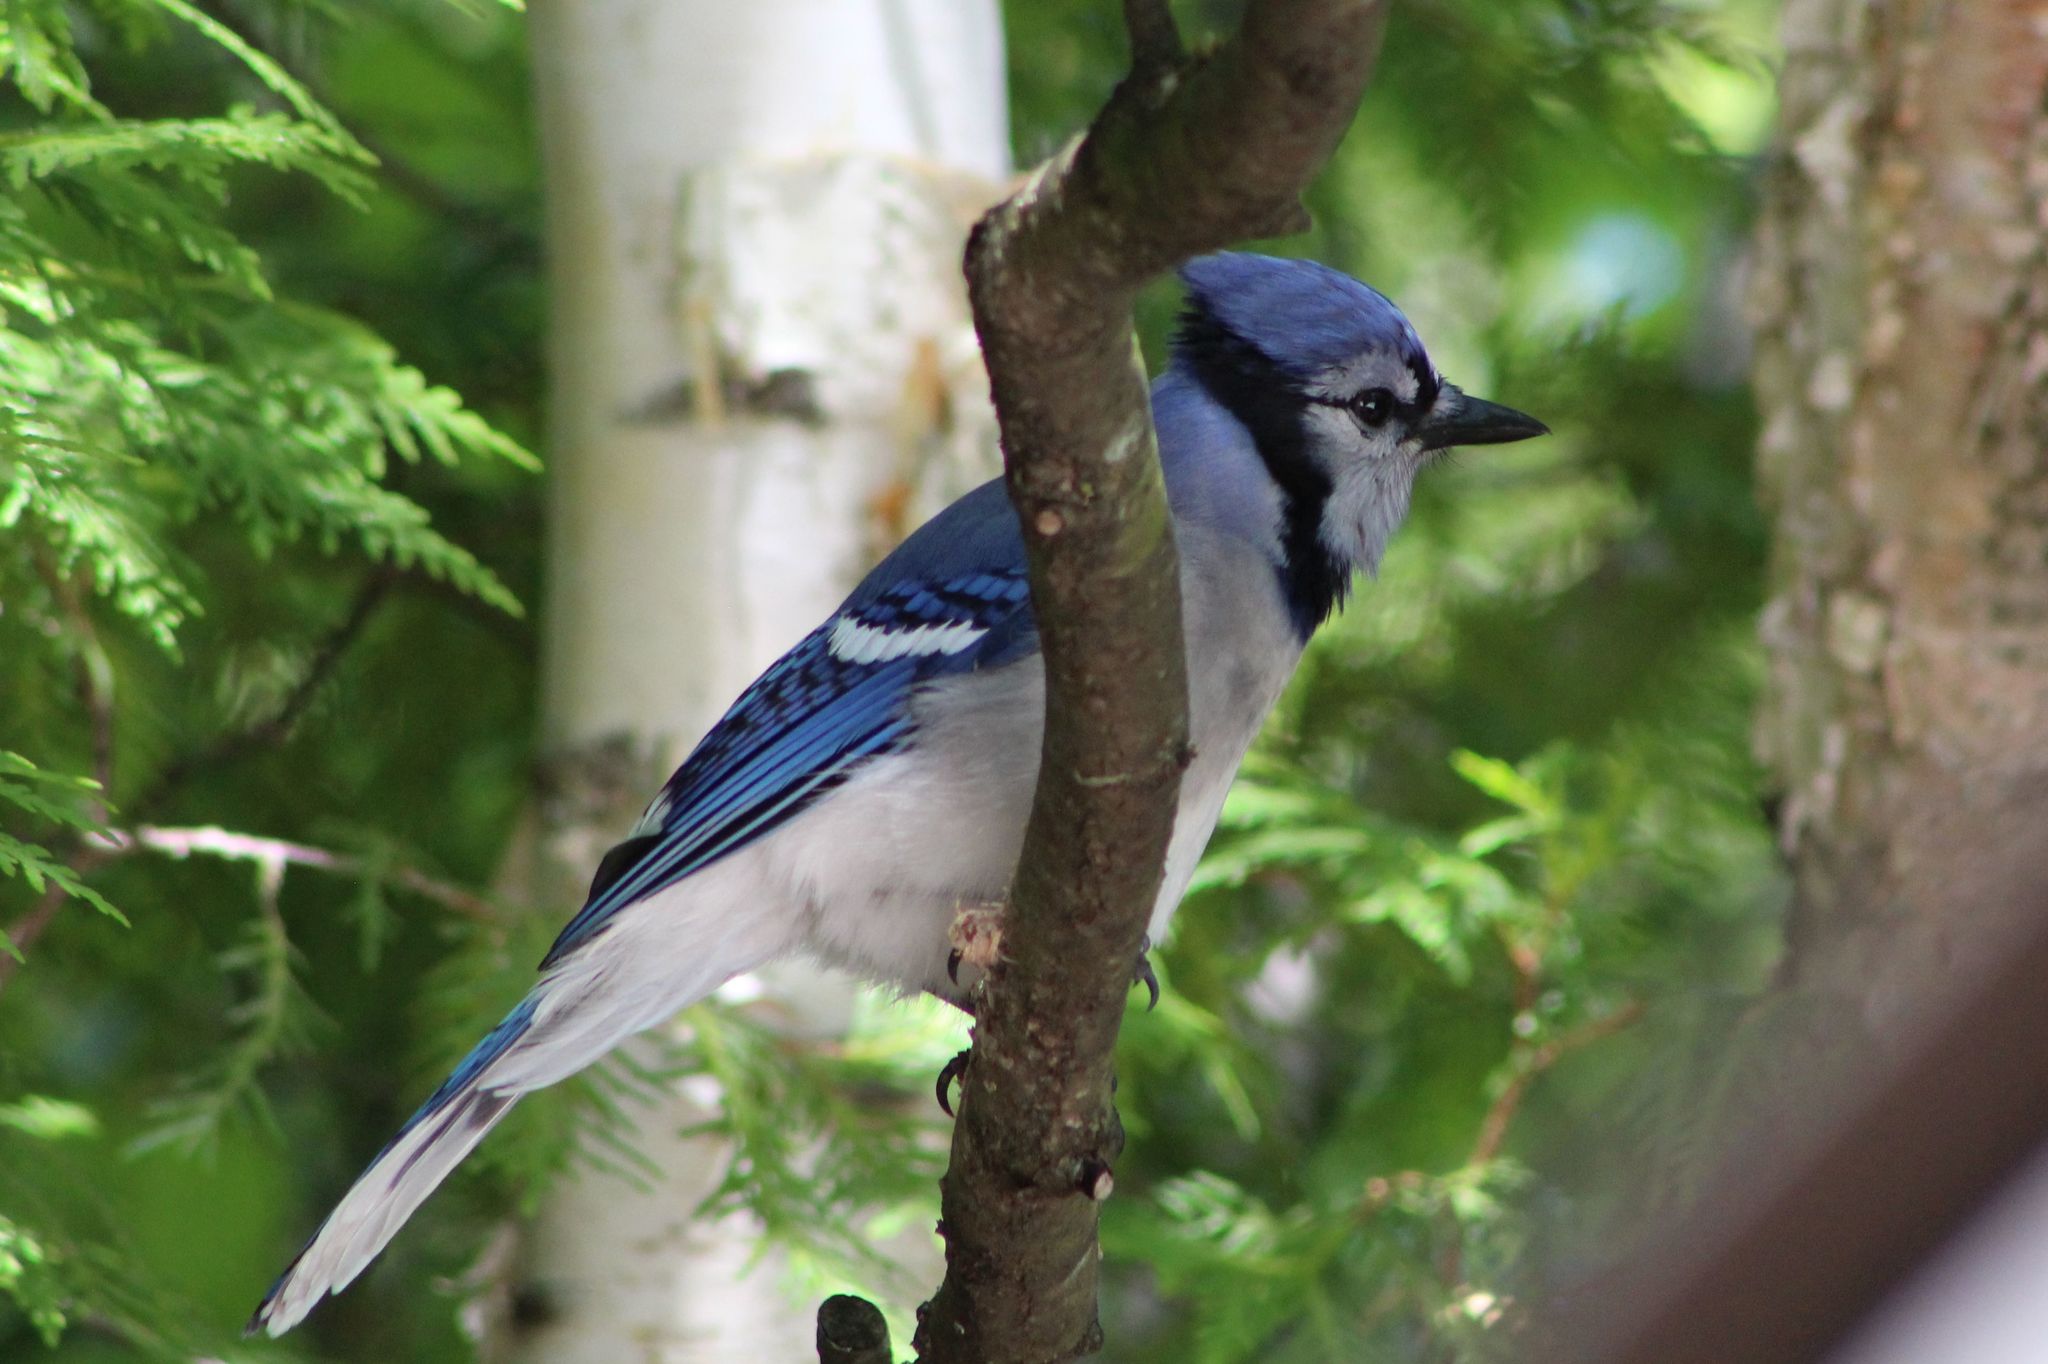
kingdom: Animalia
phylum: Chordata
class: Aves
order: Passeriformes
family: Corvidae
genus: Cyanocitta
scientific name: Cyanocitta cristata
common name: Blue jay
